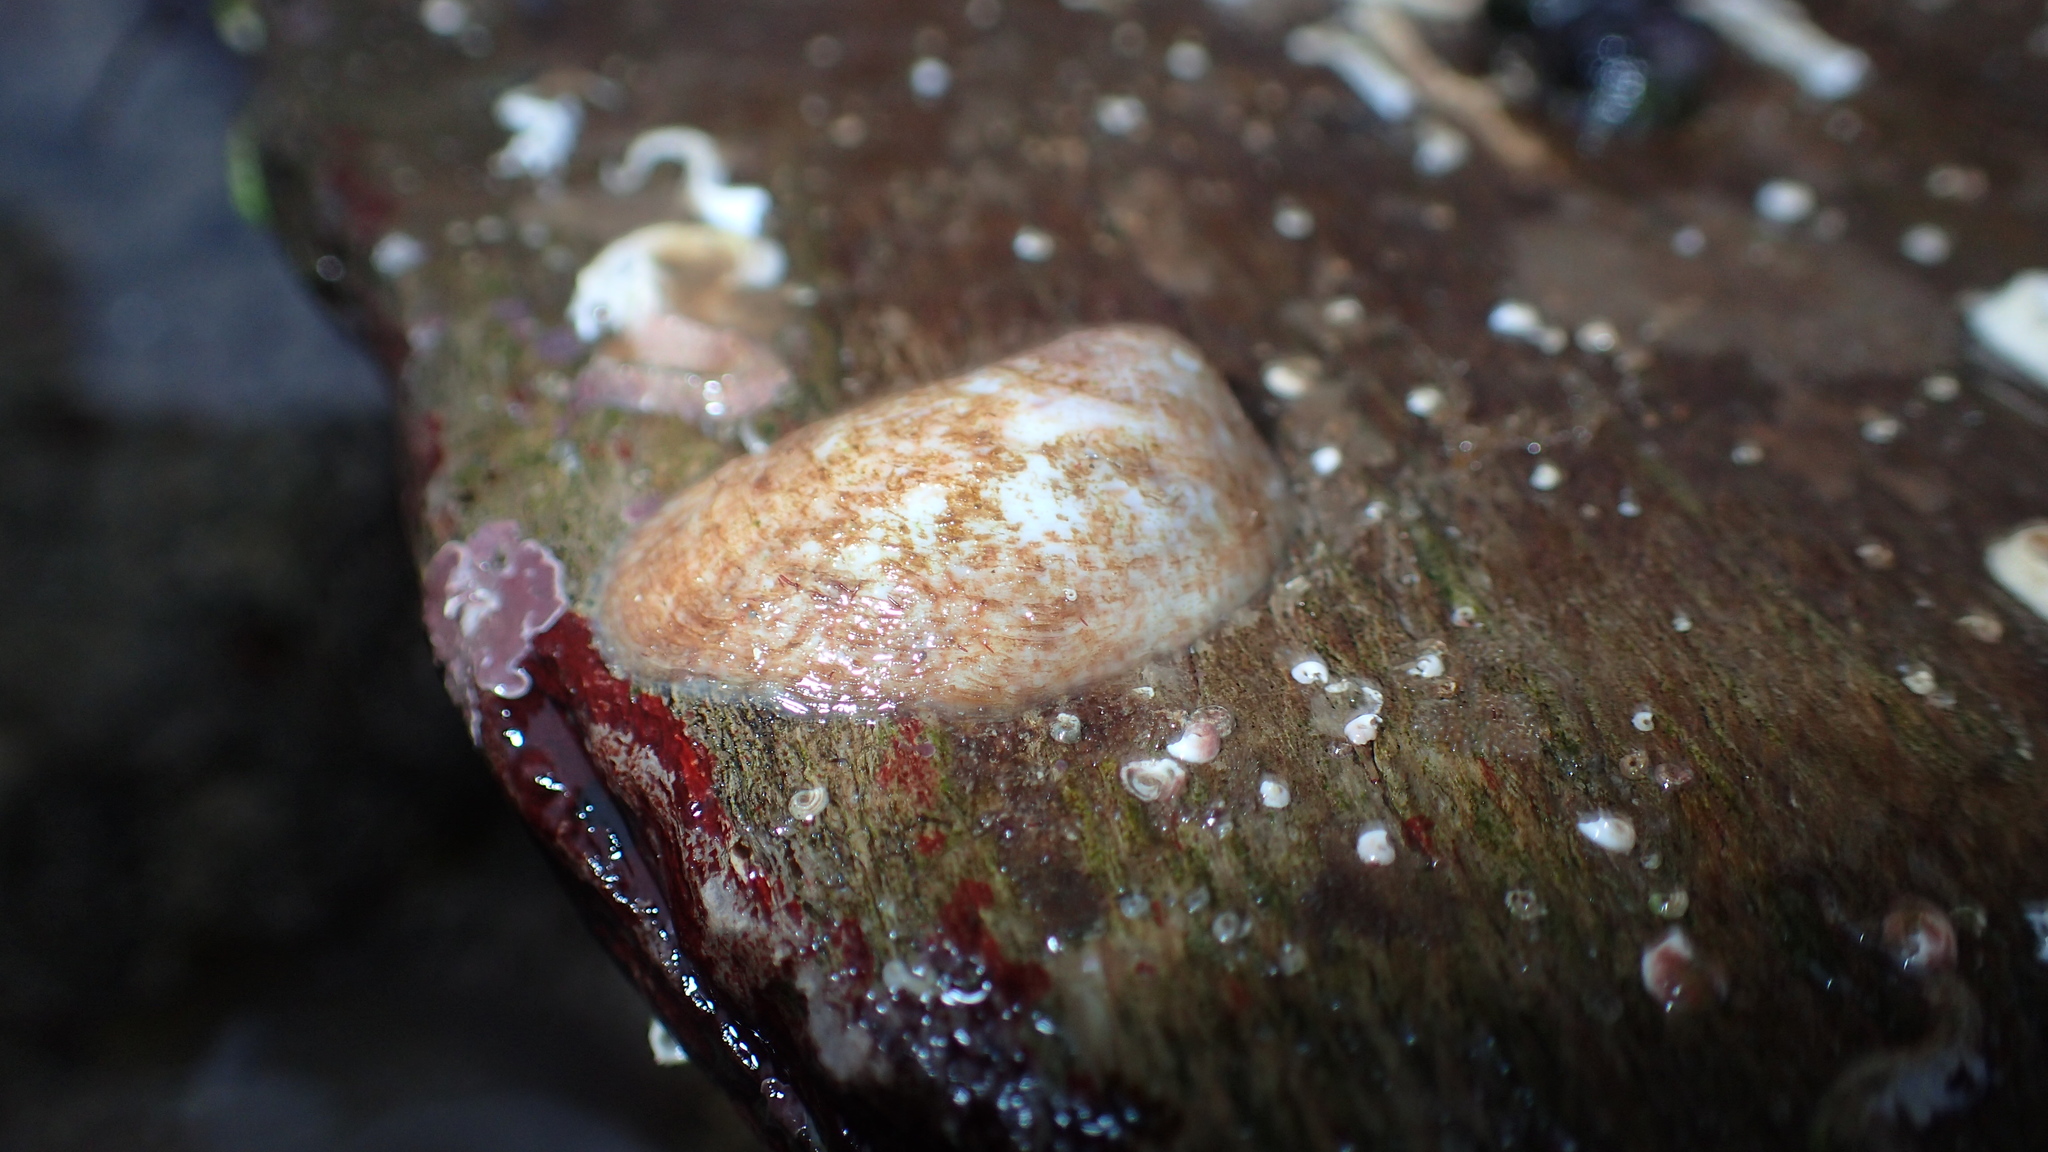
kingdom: Animalia
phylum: Mollusca
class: Gastropoda
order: Littorinimorpha
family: Calyptraeidae
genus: Crepidula
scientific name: Crepidula fornicata
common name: Slipper limpet
